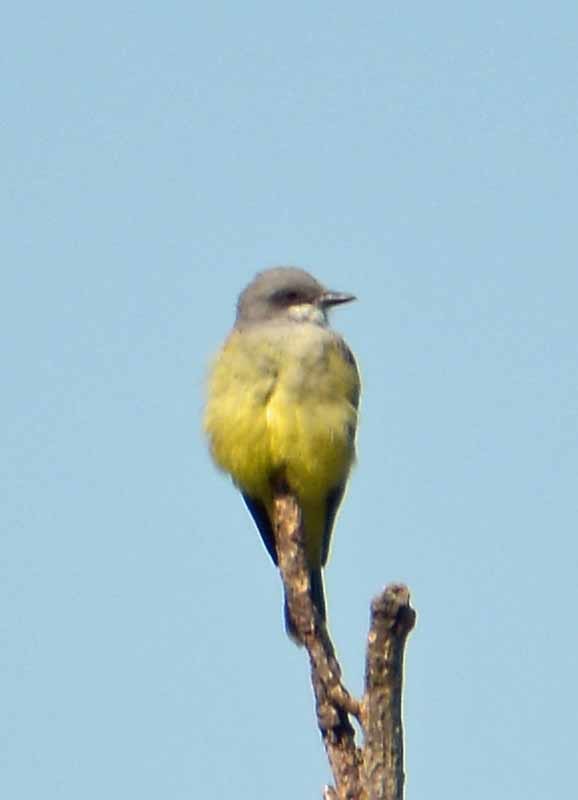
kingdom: Animalia
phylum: Chordata
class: Aves
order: Passeriformes
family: Tyrannidae
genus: Tyrannus
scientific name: Tyrannus vociferans
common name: Cassin's kingbird
